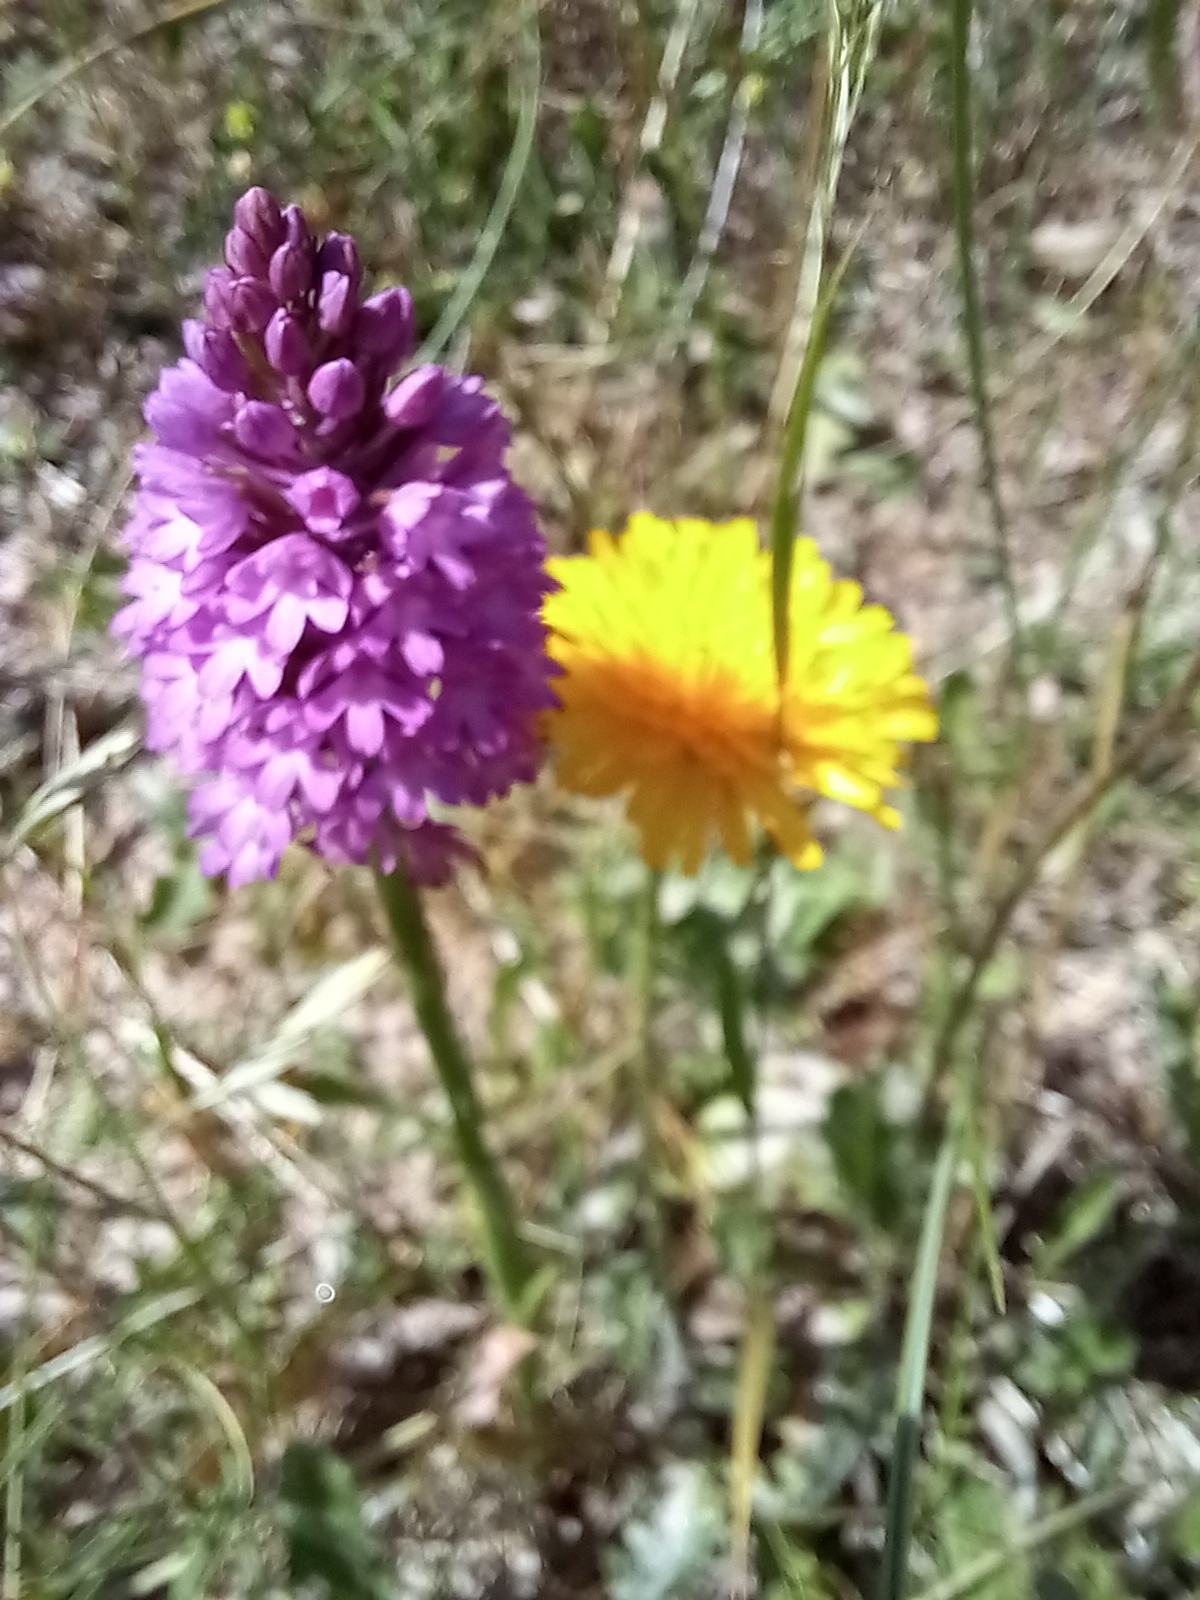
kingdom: Plantae
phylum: Tracheophyta
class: Liliopsida
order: Asparagales
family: Orchidaceae
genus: Anacamptis
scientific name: Anacamptis pyramidalis
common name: Pyramidal orchid
